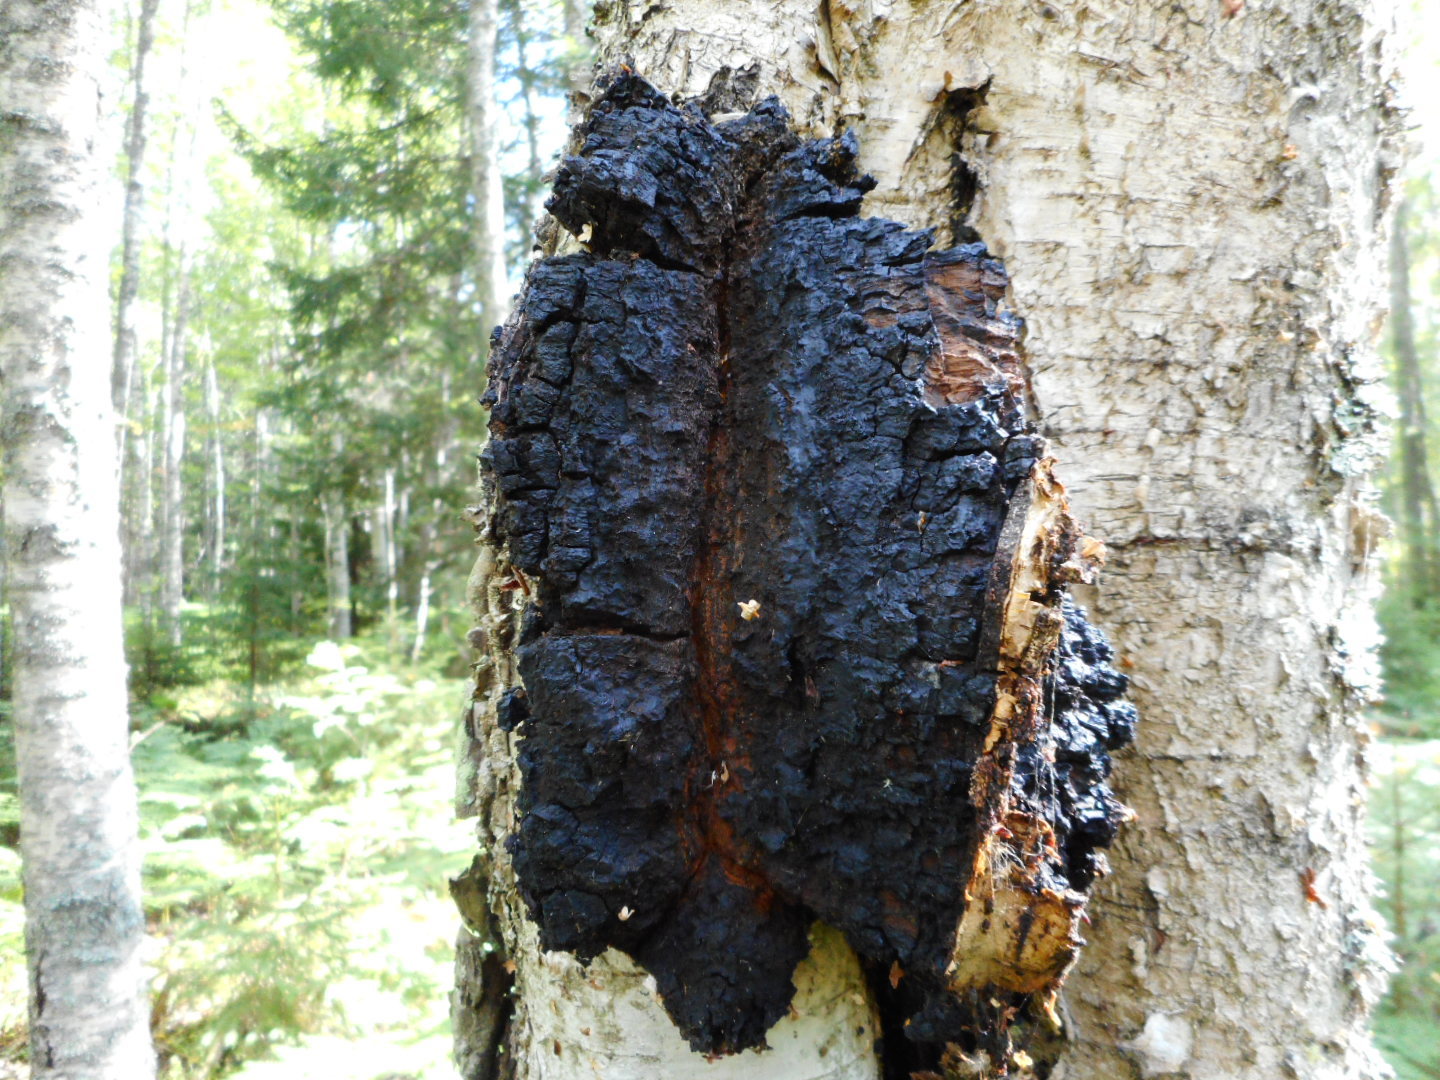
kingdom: Fungi
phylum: Basidiomycota
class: Agaricomycetes
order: Hymenochaetales
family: Hymenochaetaceae
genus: Inonotus
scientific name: Inonotus obliquus
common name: Chaga
